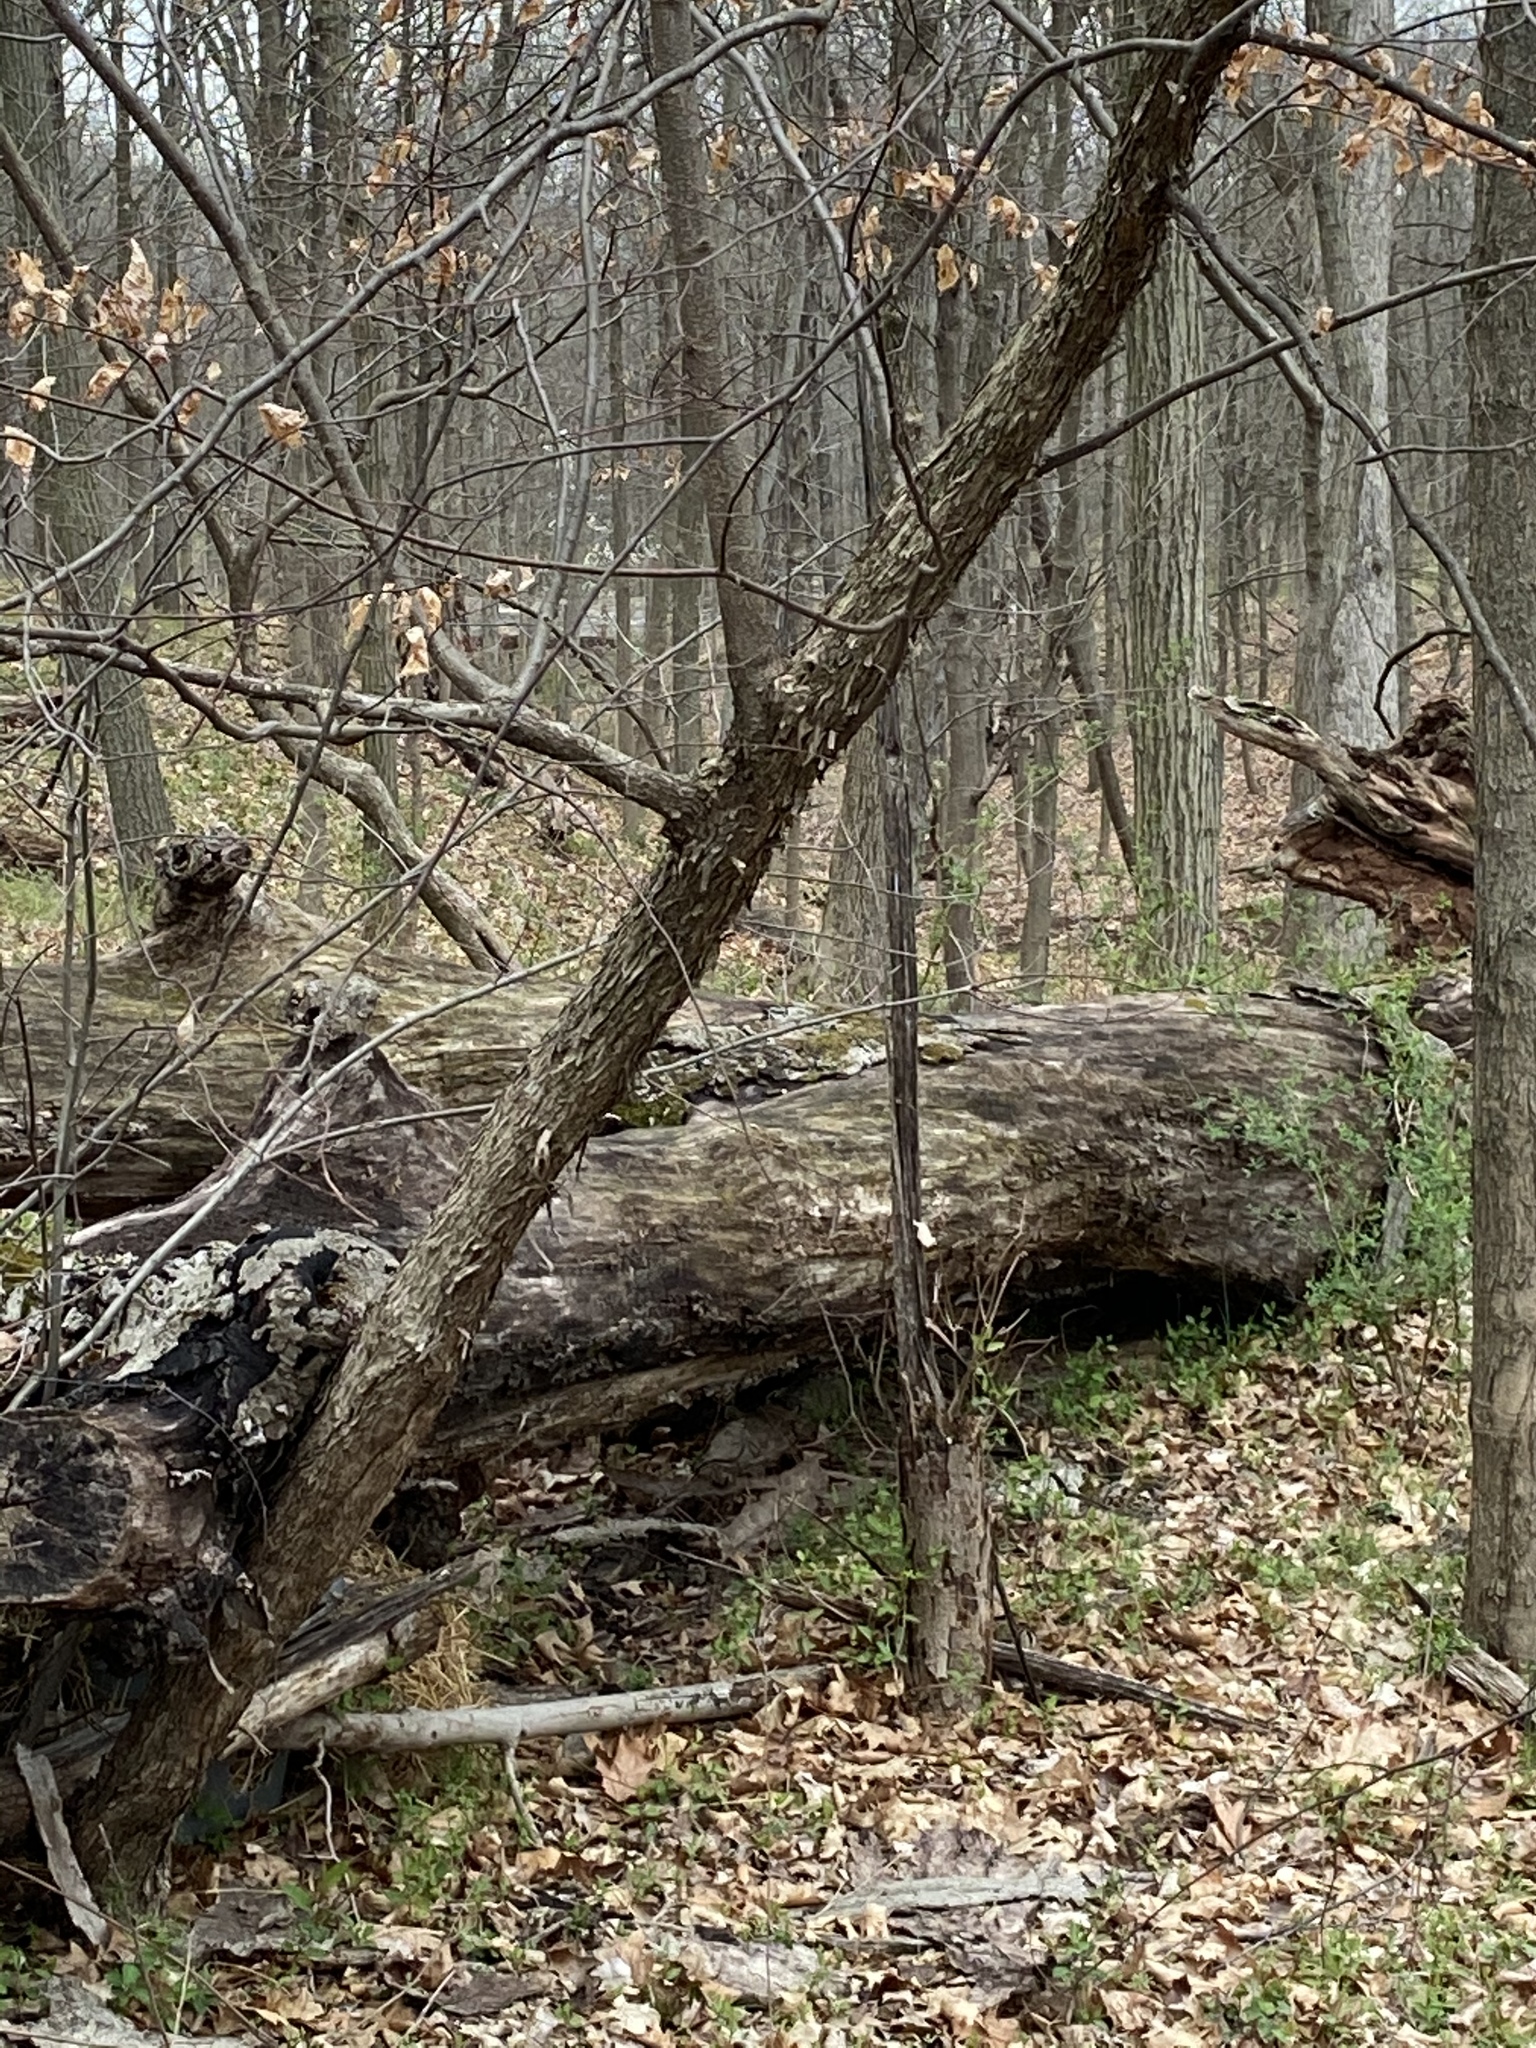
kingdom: Plantae
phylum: Tracheophyta
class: Magnoliopsida
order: Fagales
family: Betulaceae
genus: Ostrya
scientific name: Ostrya virginiana
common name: Ironwood
